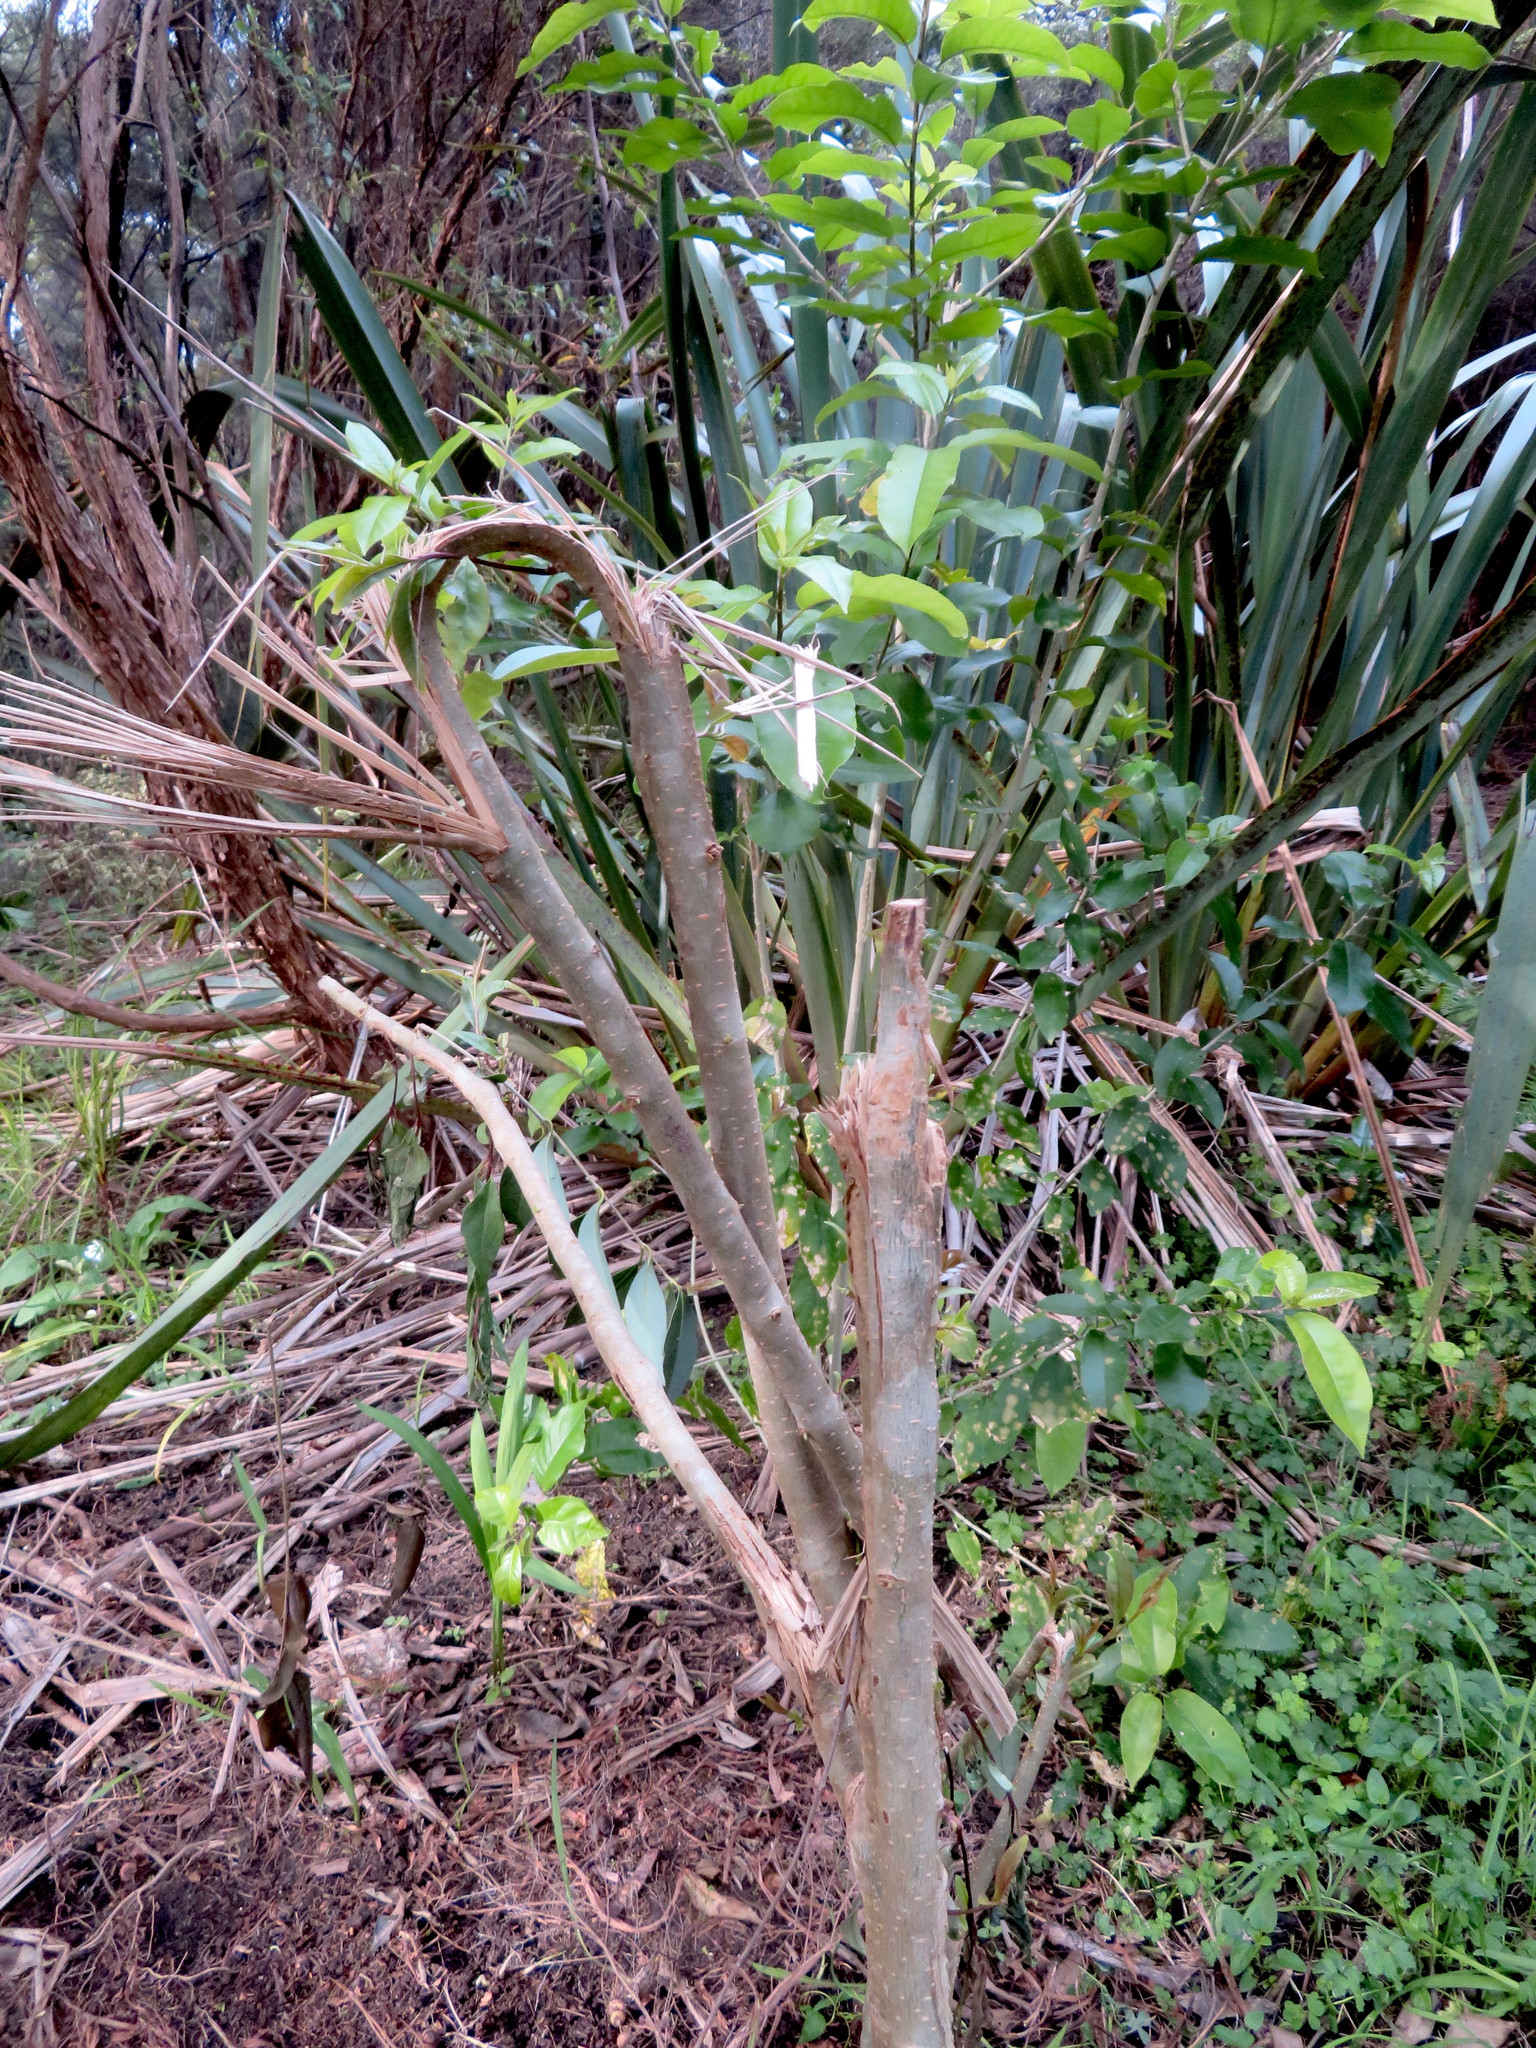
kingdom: Plantae
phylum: Tracheophyta
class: Magnoliopsida
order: Lamiales
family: Oleaceae
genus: Ligustrum
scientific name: Ligustrum lucidum
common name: Glossy privet
